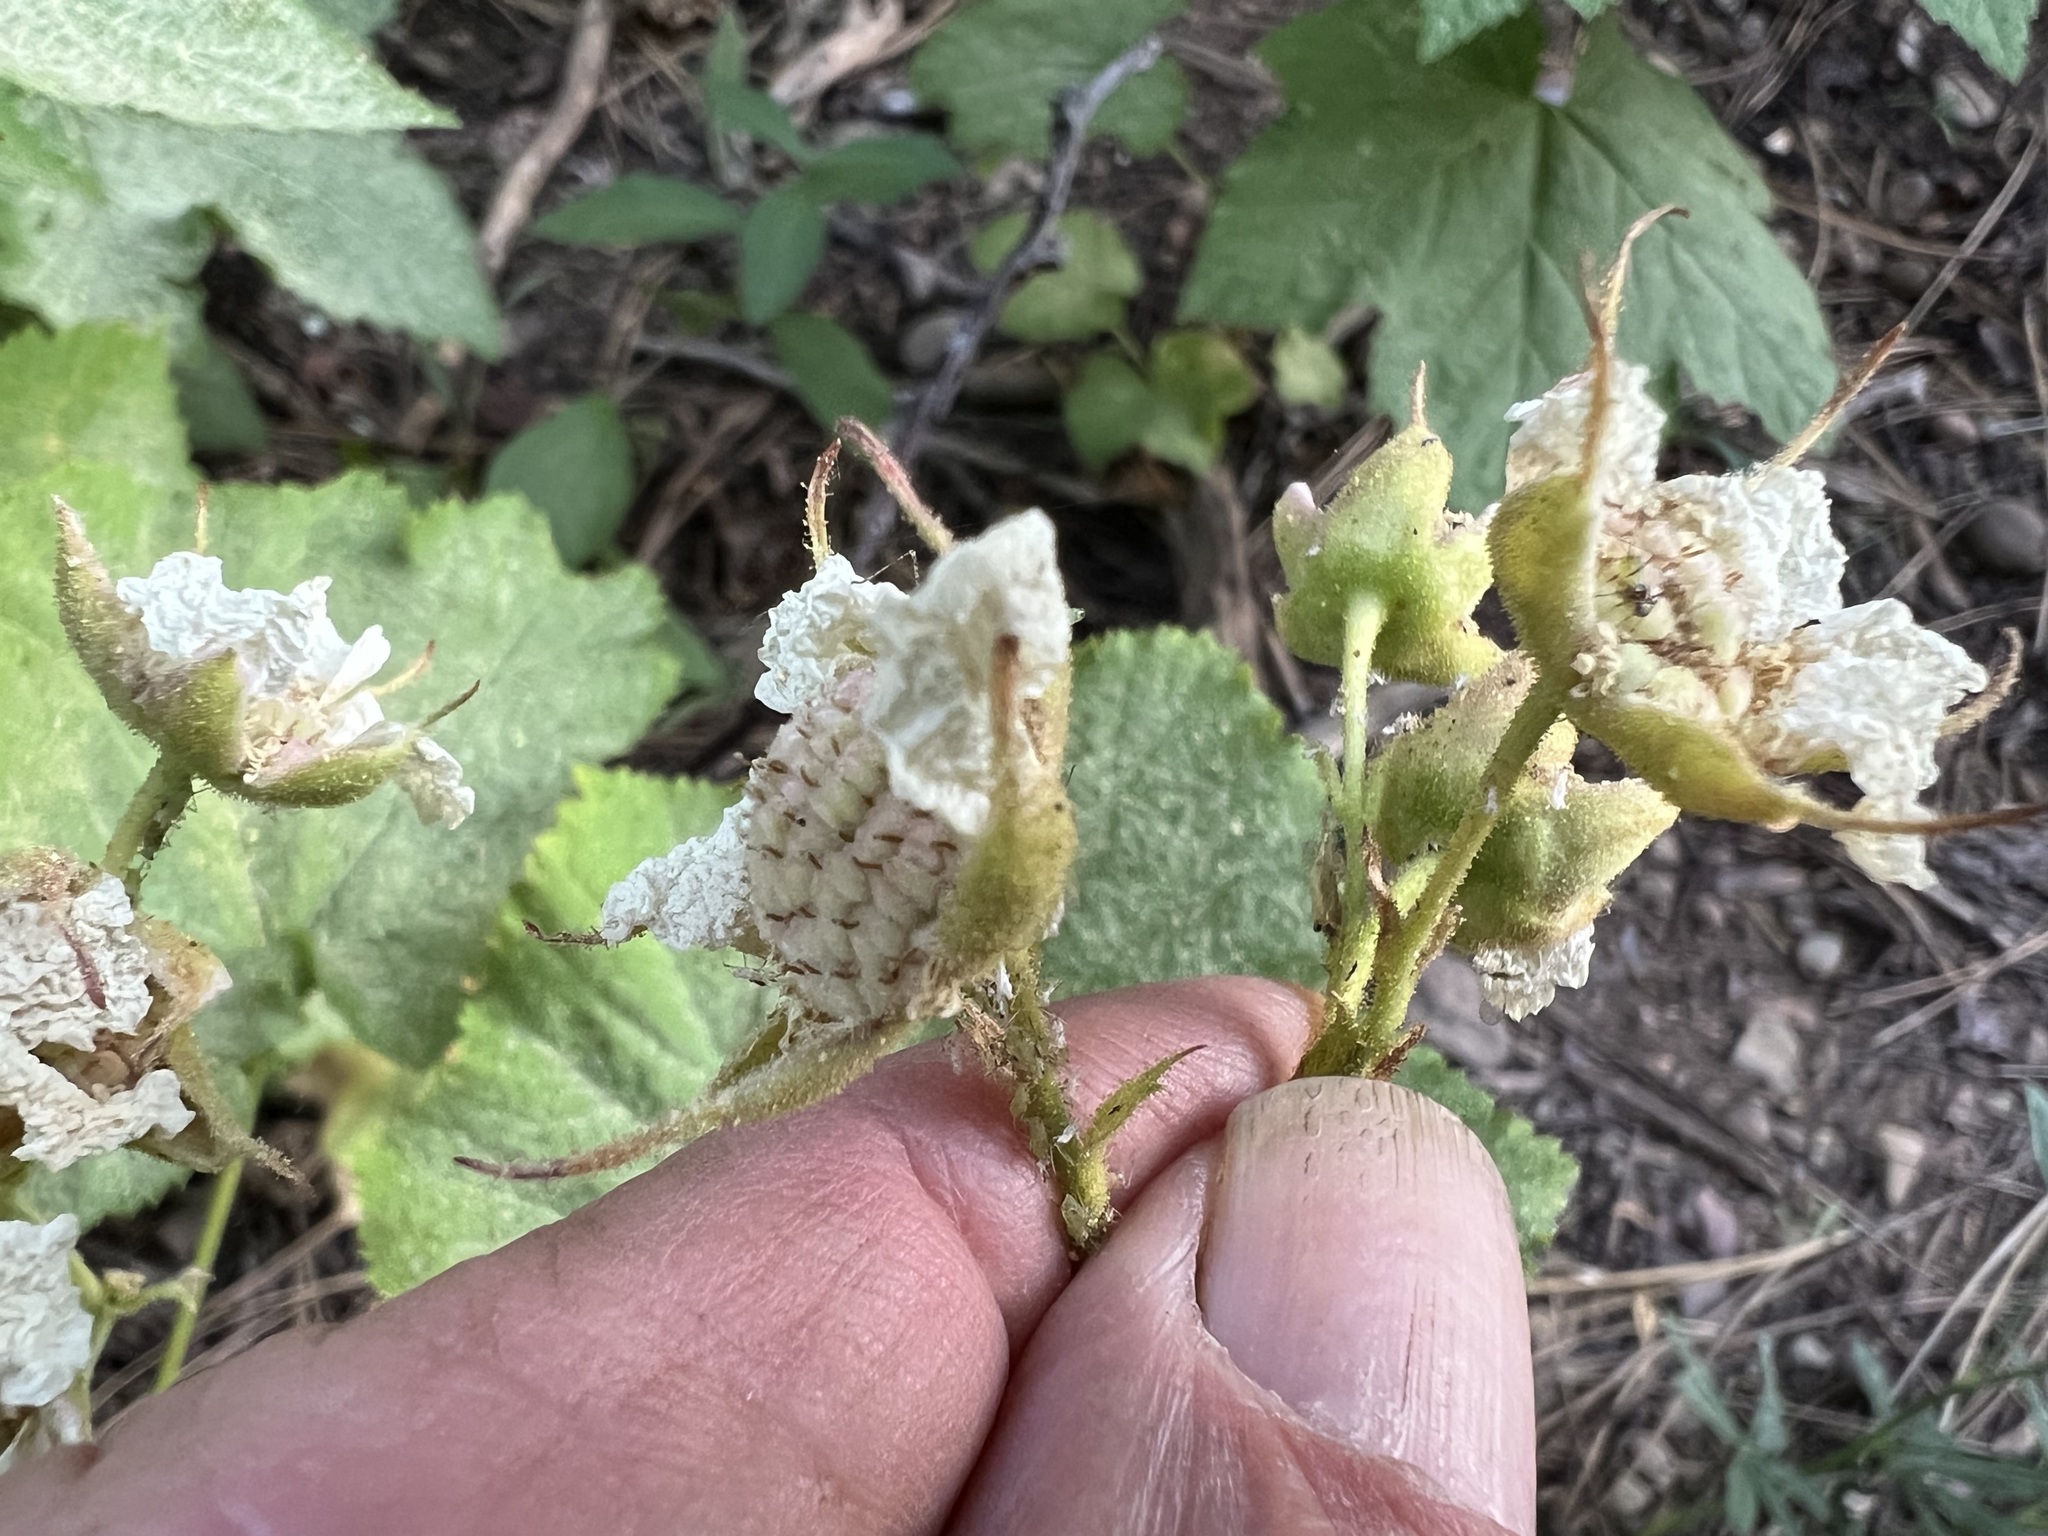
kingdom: Plantae
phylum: Tracheophyta
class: Magnoliopsida
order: Rosales
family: Rosaceae
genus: Rubus
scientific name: Rubus parviflorus
